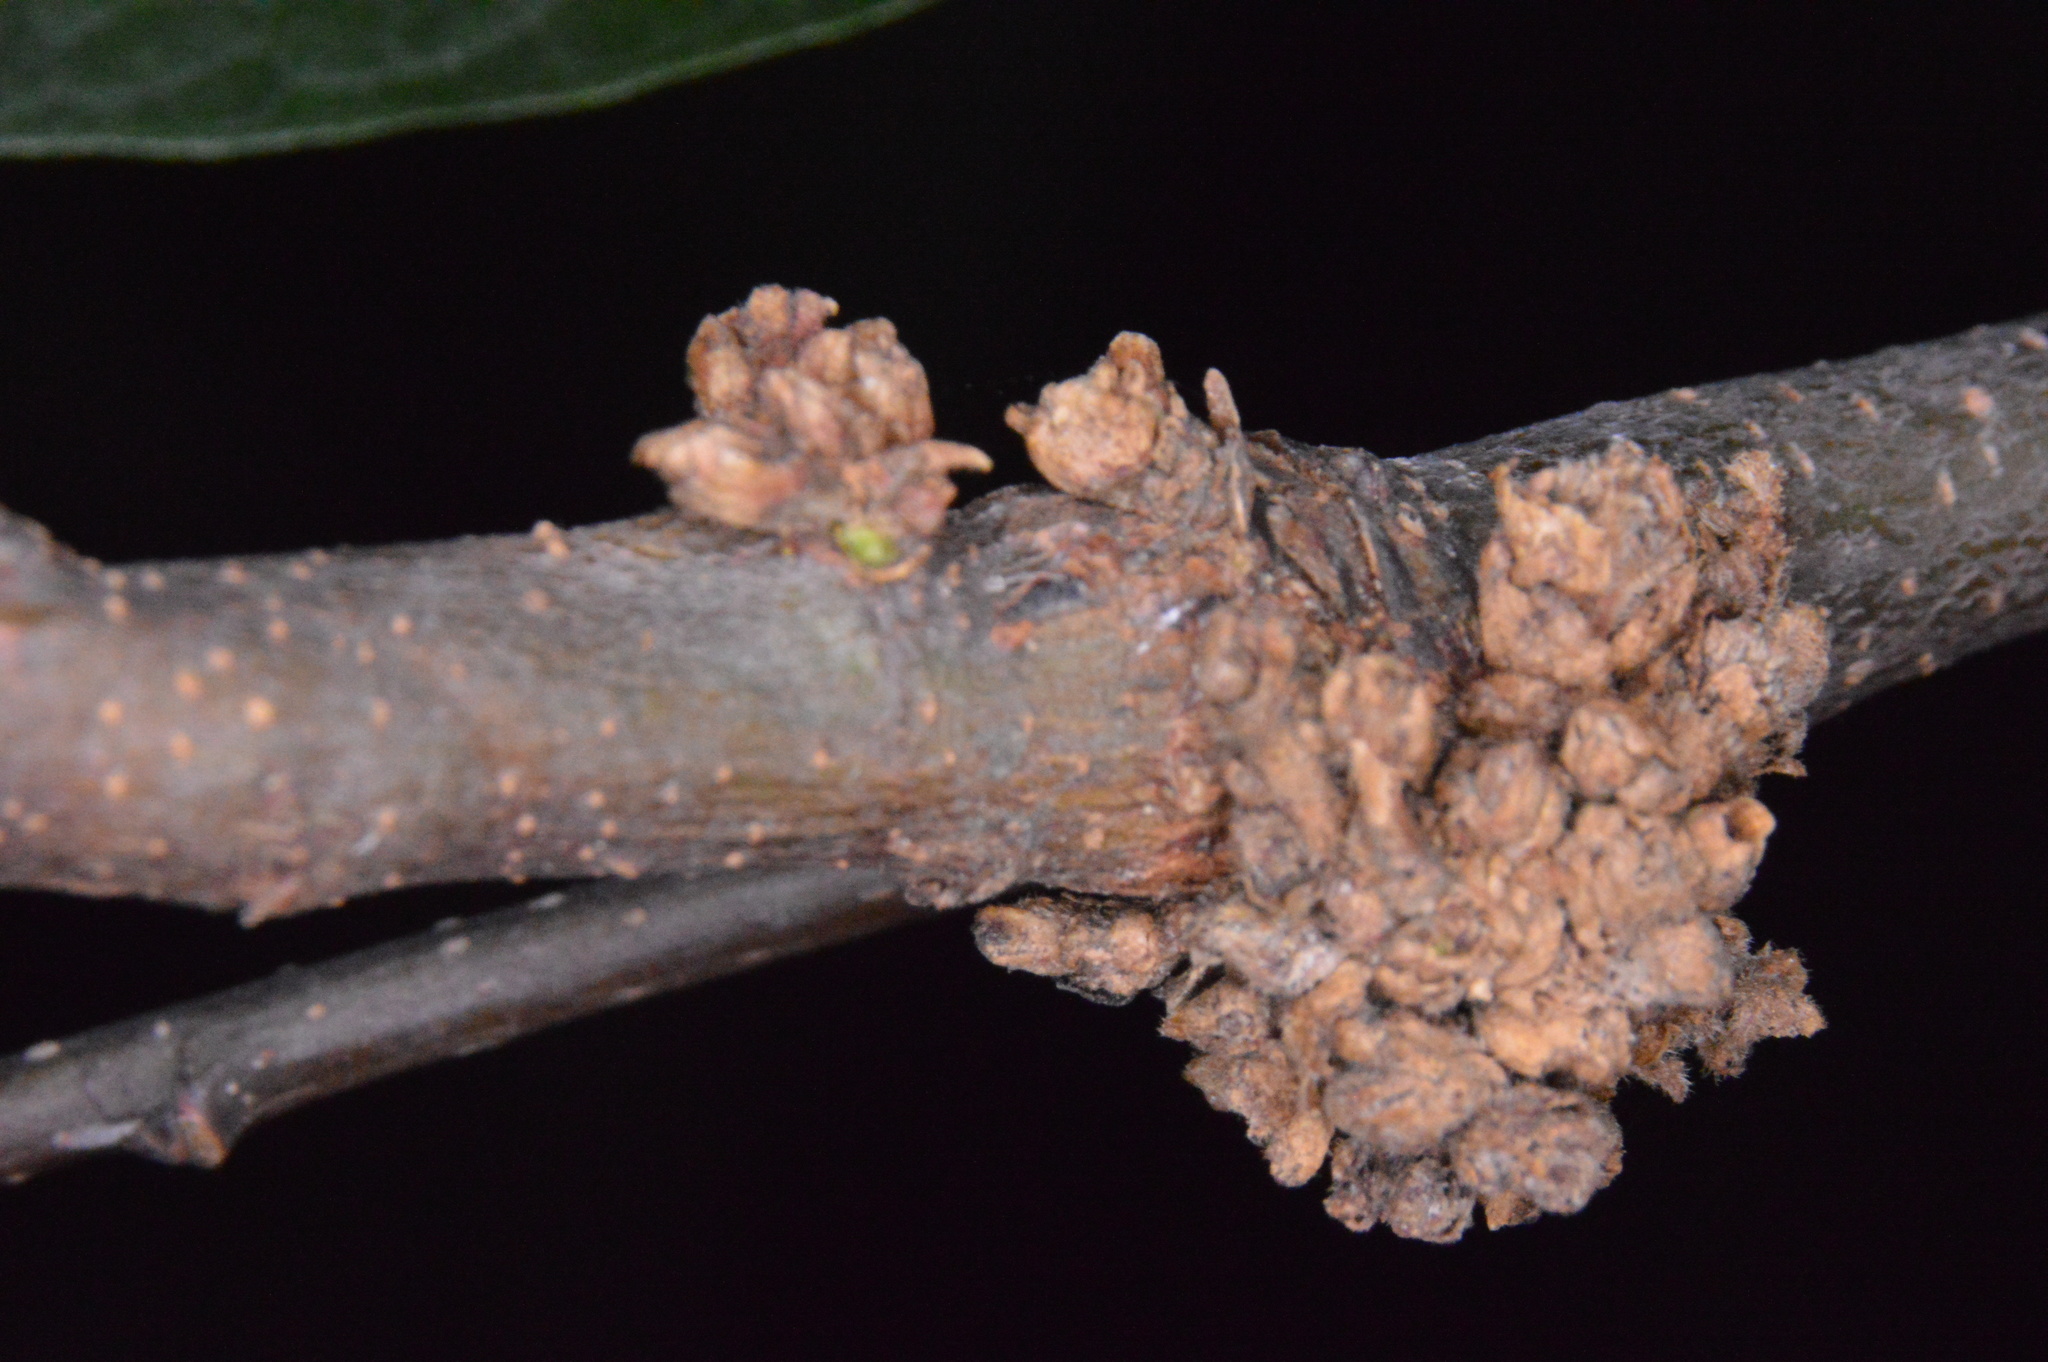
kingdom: Animalia
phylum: Arthropoda
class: Arachnida
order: Trombidiformes
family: Eriophyidae
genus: Aceria
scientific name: Aceria
